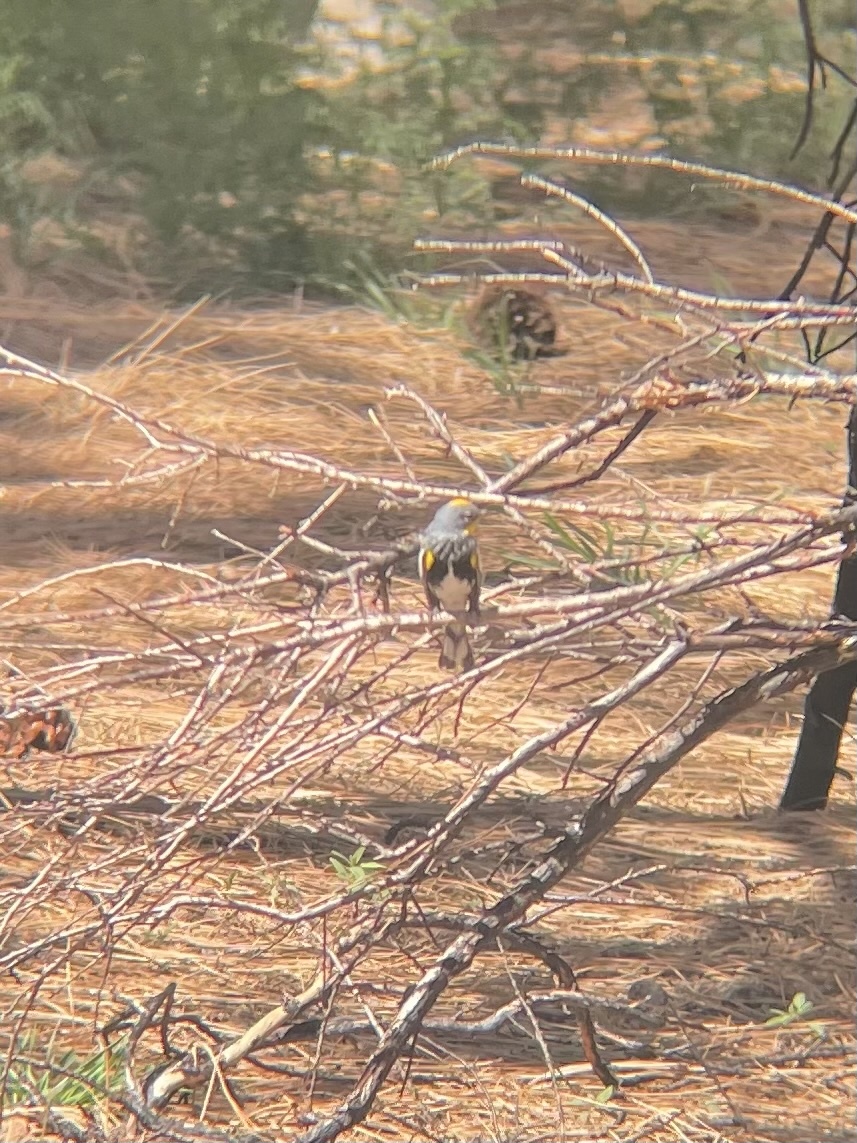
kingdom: Animalia
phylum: Chordata
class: Aves
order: Passeriformes
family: Parulidae
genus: Setophaga
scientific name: Setophaga coronata
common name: Myrtle warbler
